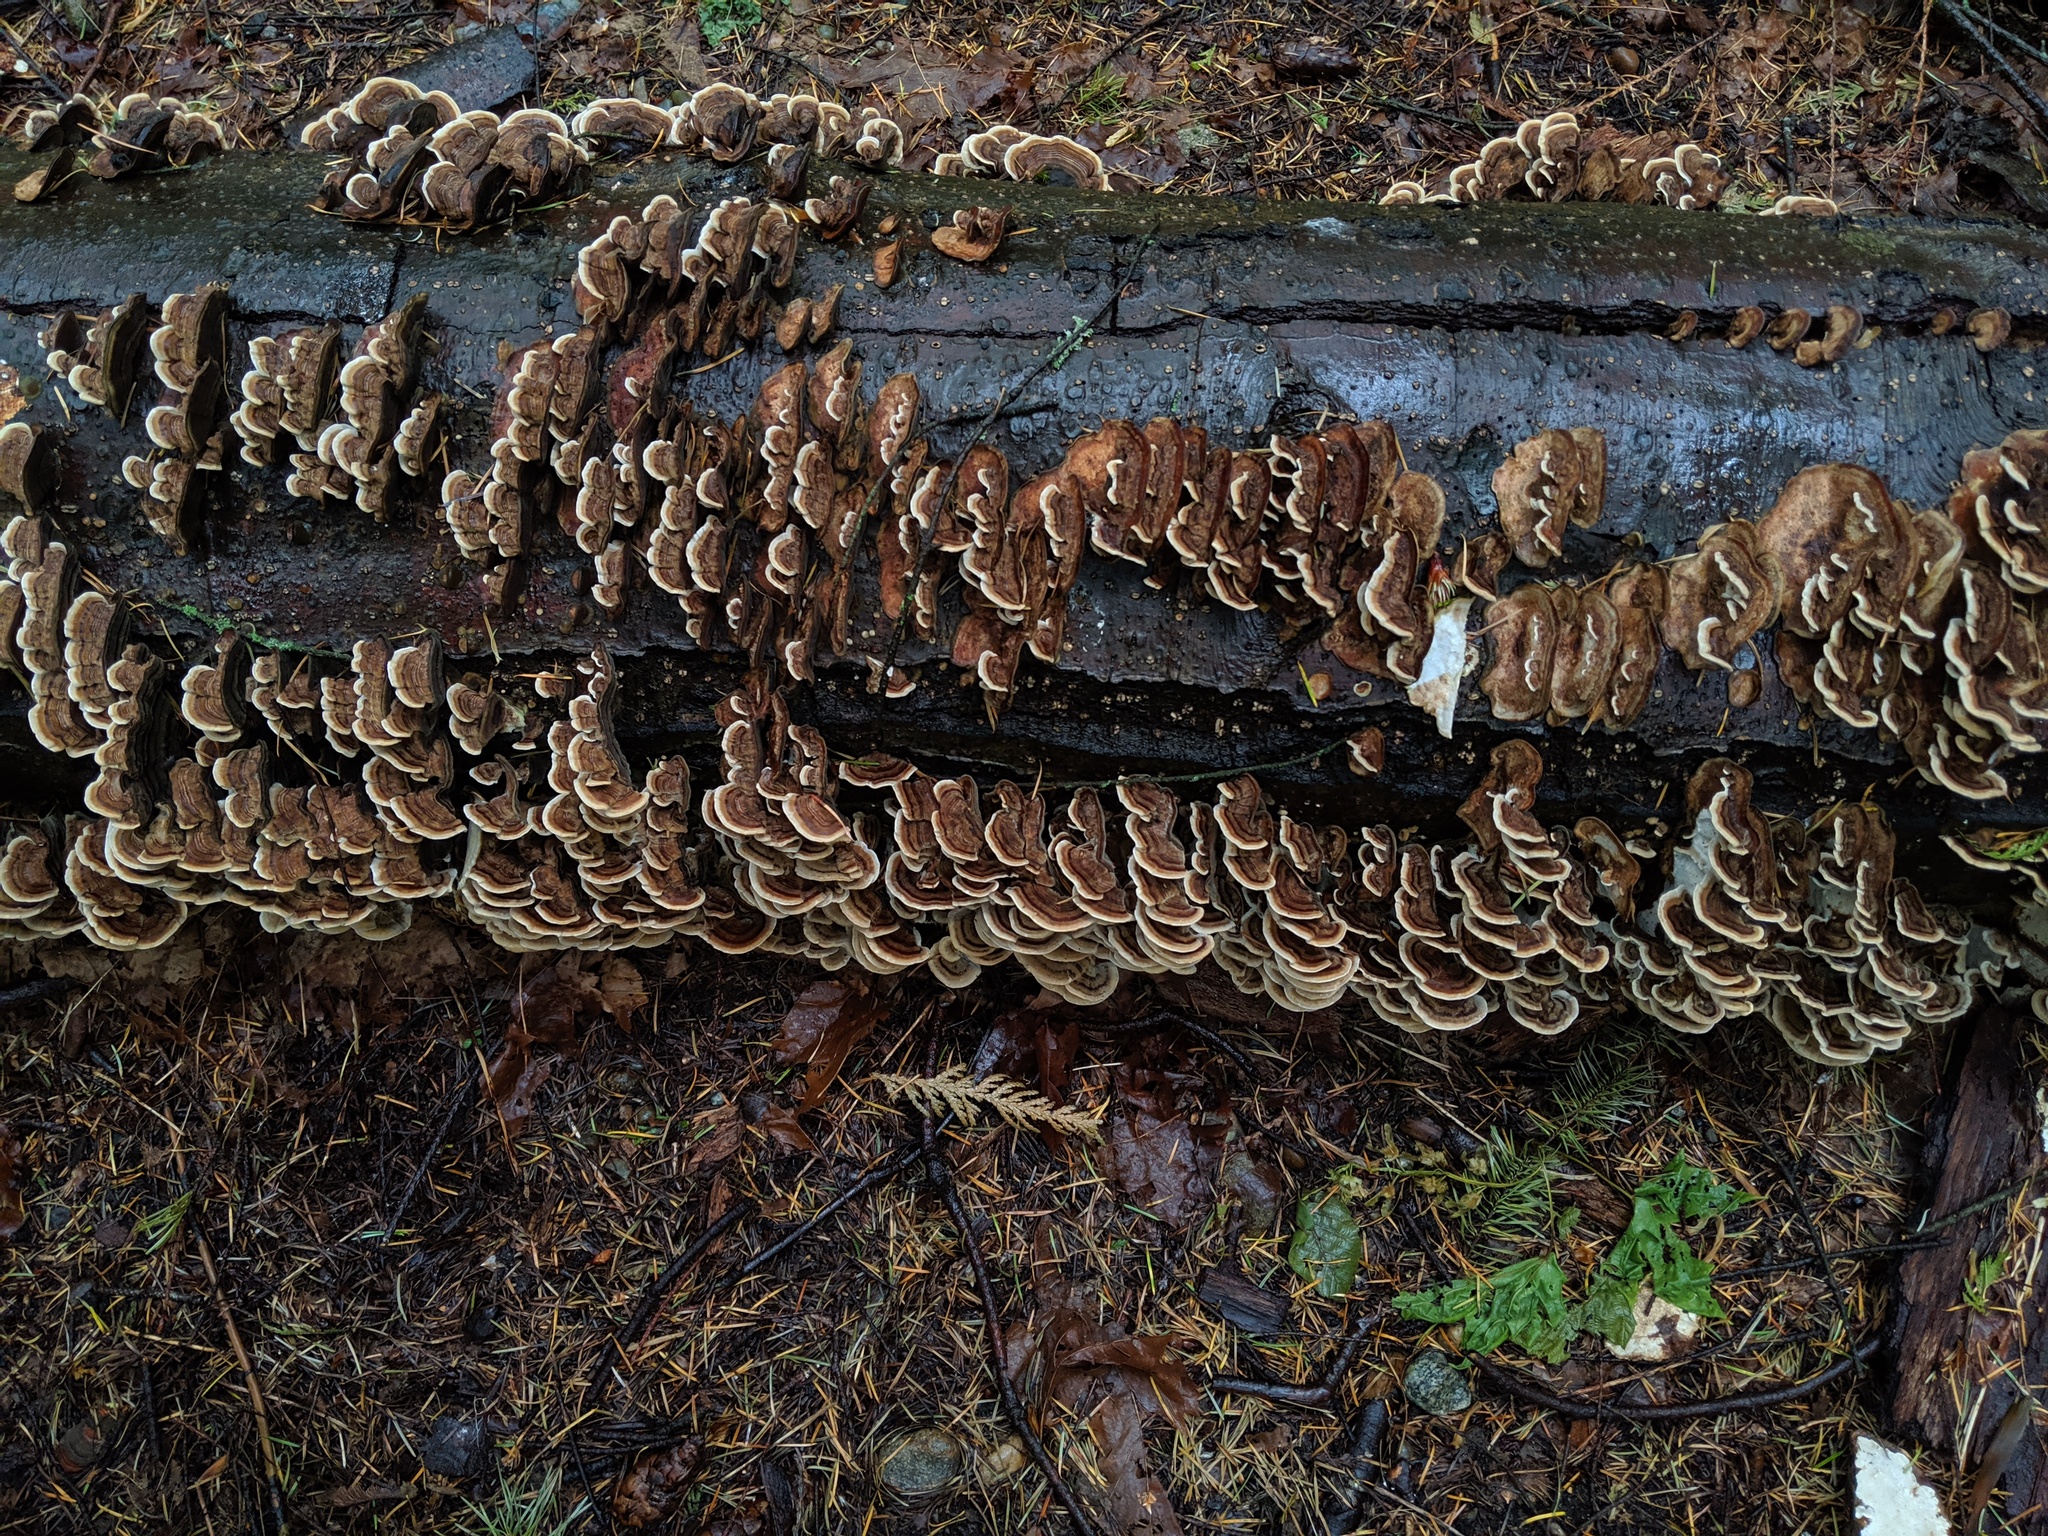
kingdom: Fungi
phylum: Basidiomycota
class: Agaricomycetes
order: Polyporales
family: Polyporaceae
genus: Trametes
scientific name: Trametes versicolor
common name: Turkeytail
